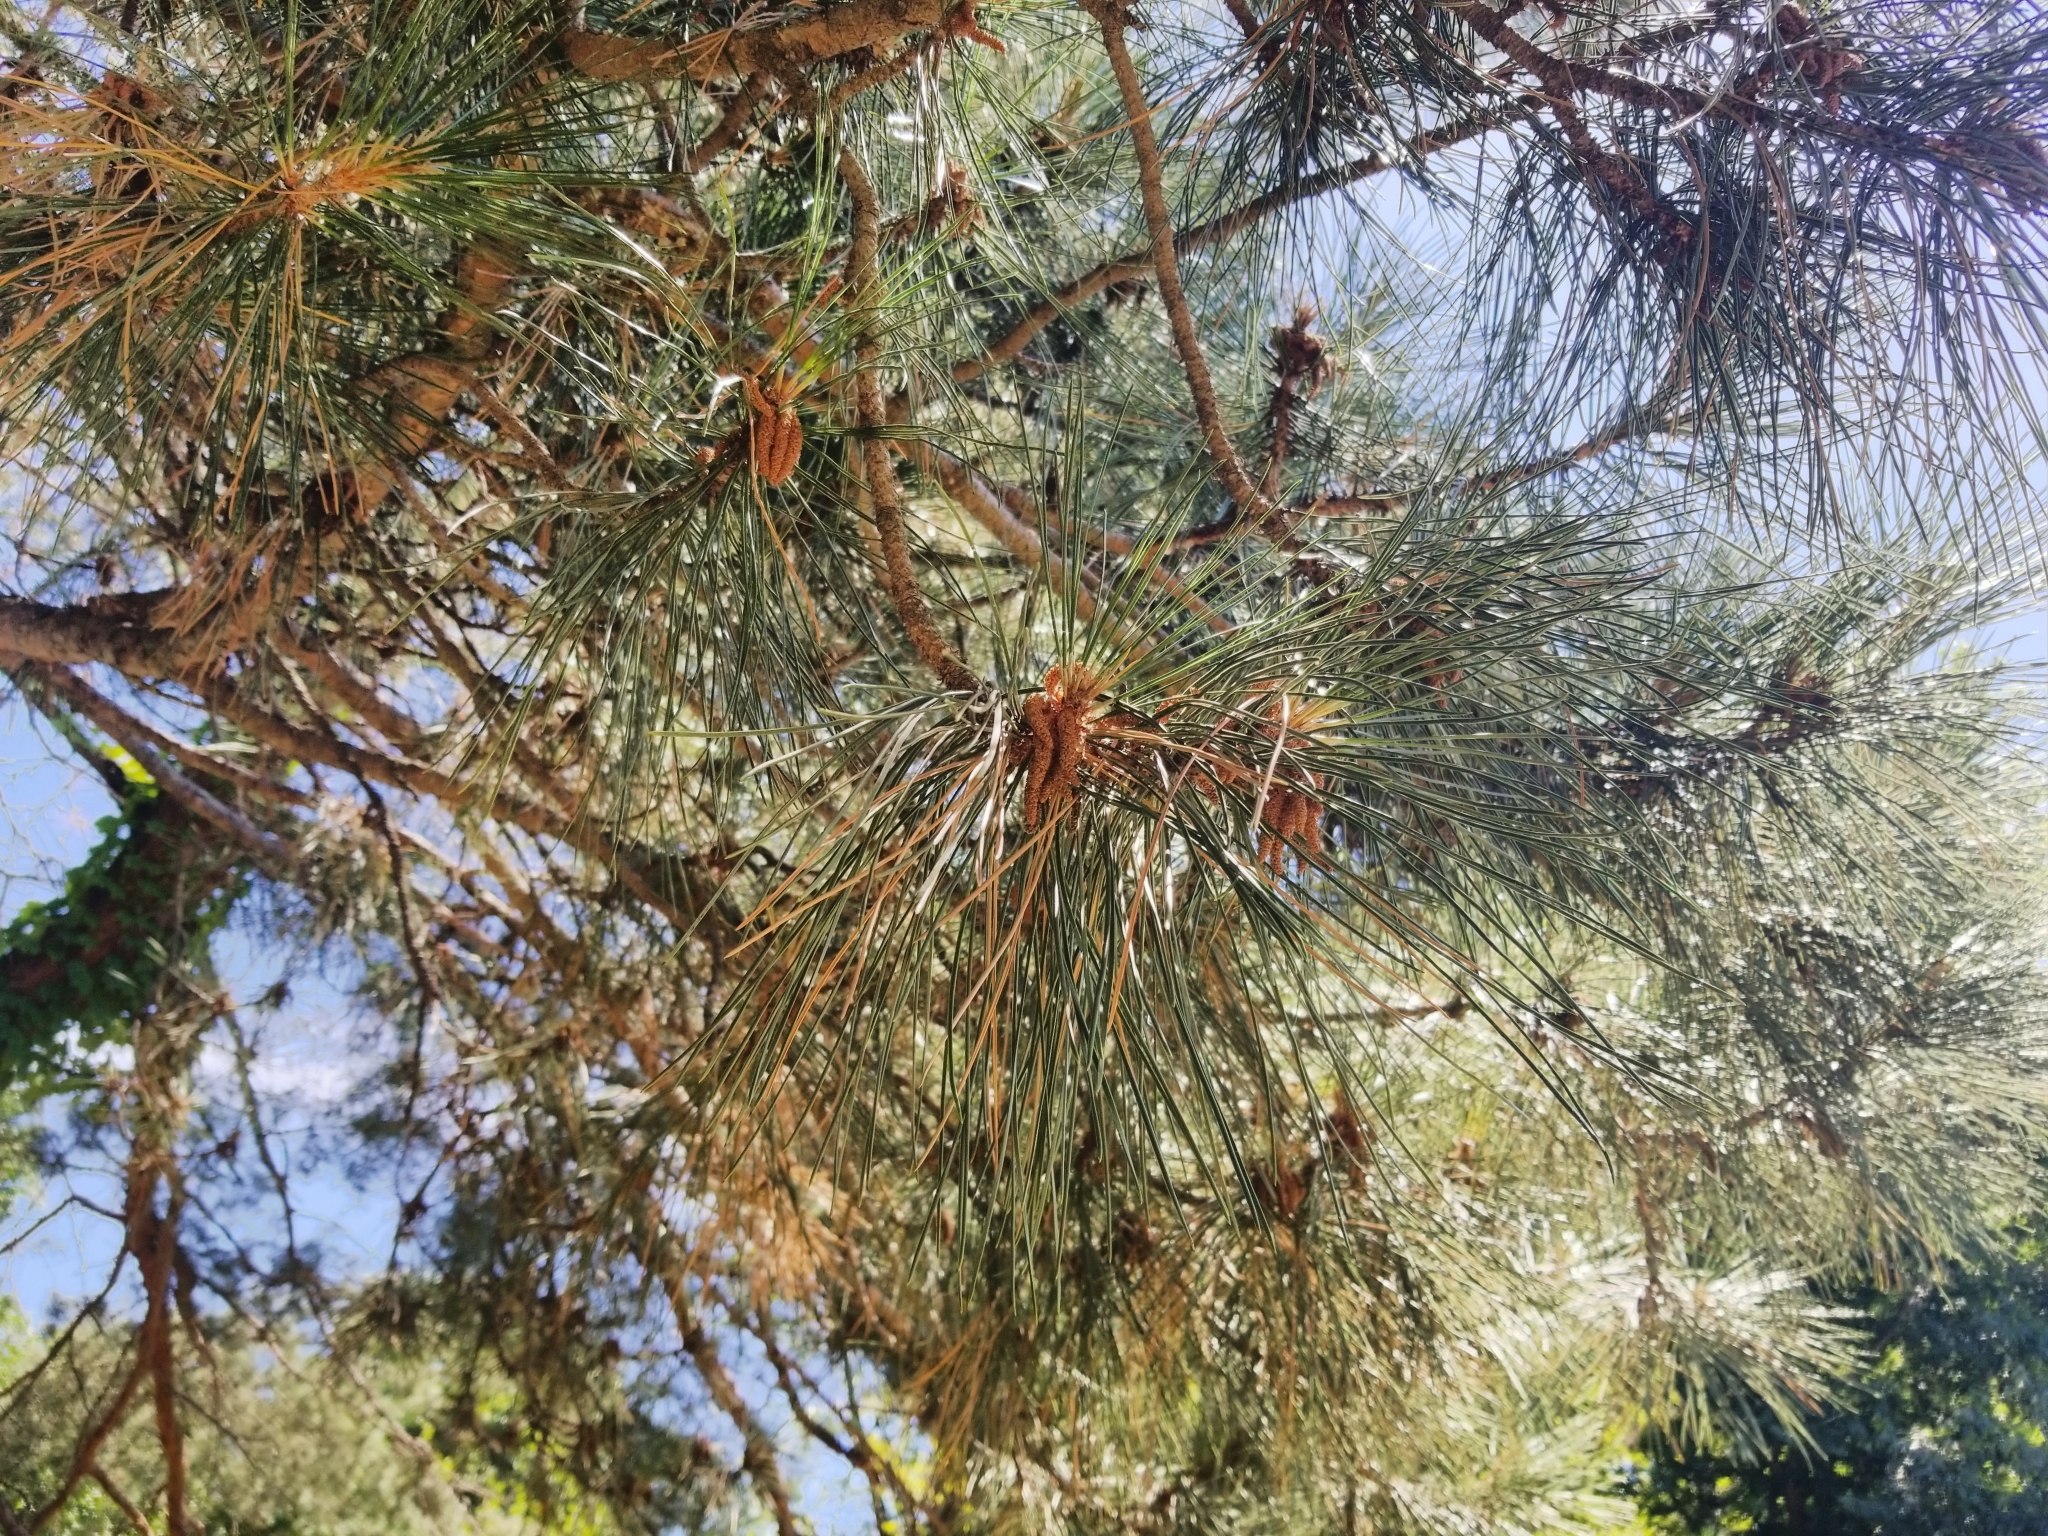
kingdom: Plantae
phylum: Tracheophyta
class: Pinopsida
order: Pinales
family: Pinaceae
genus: Pinus
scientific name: Pinus strobus
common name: Weymouth pine
